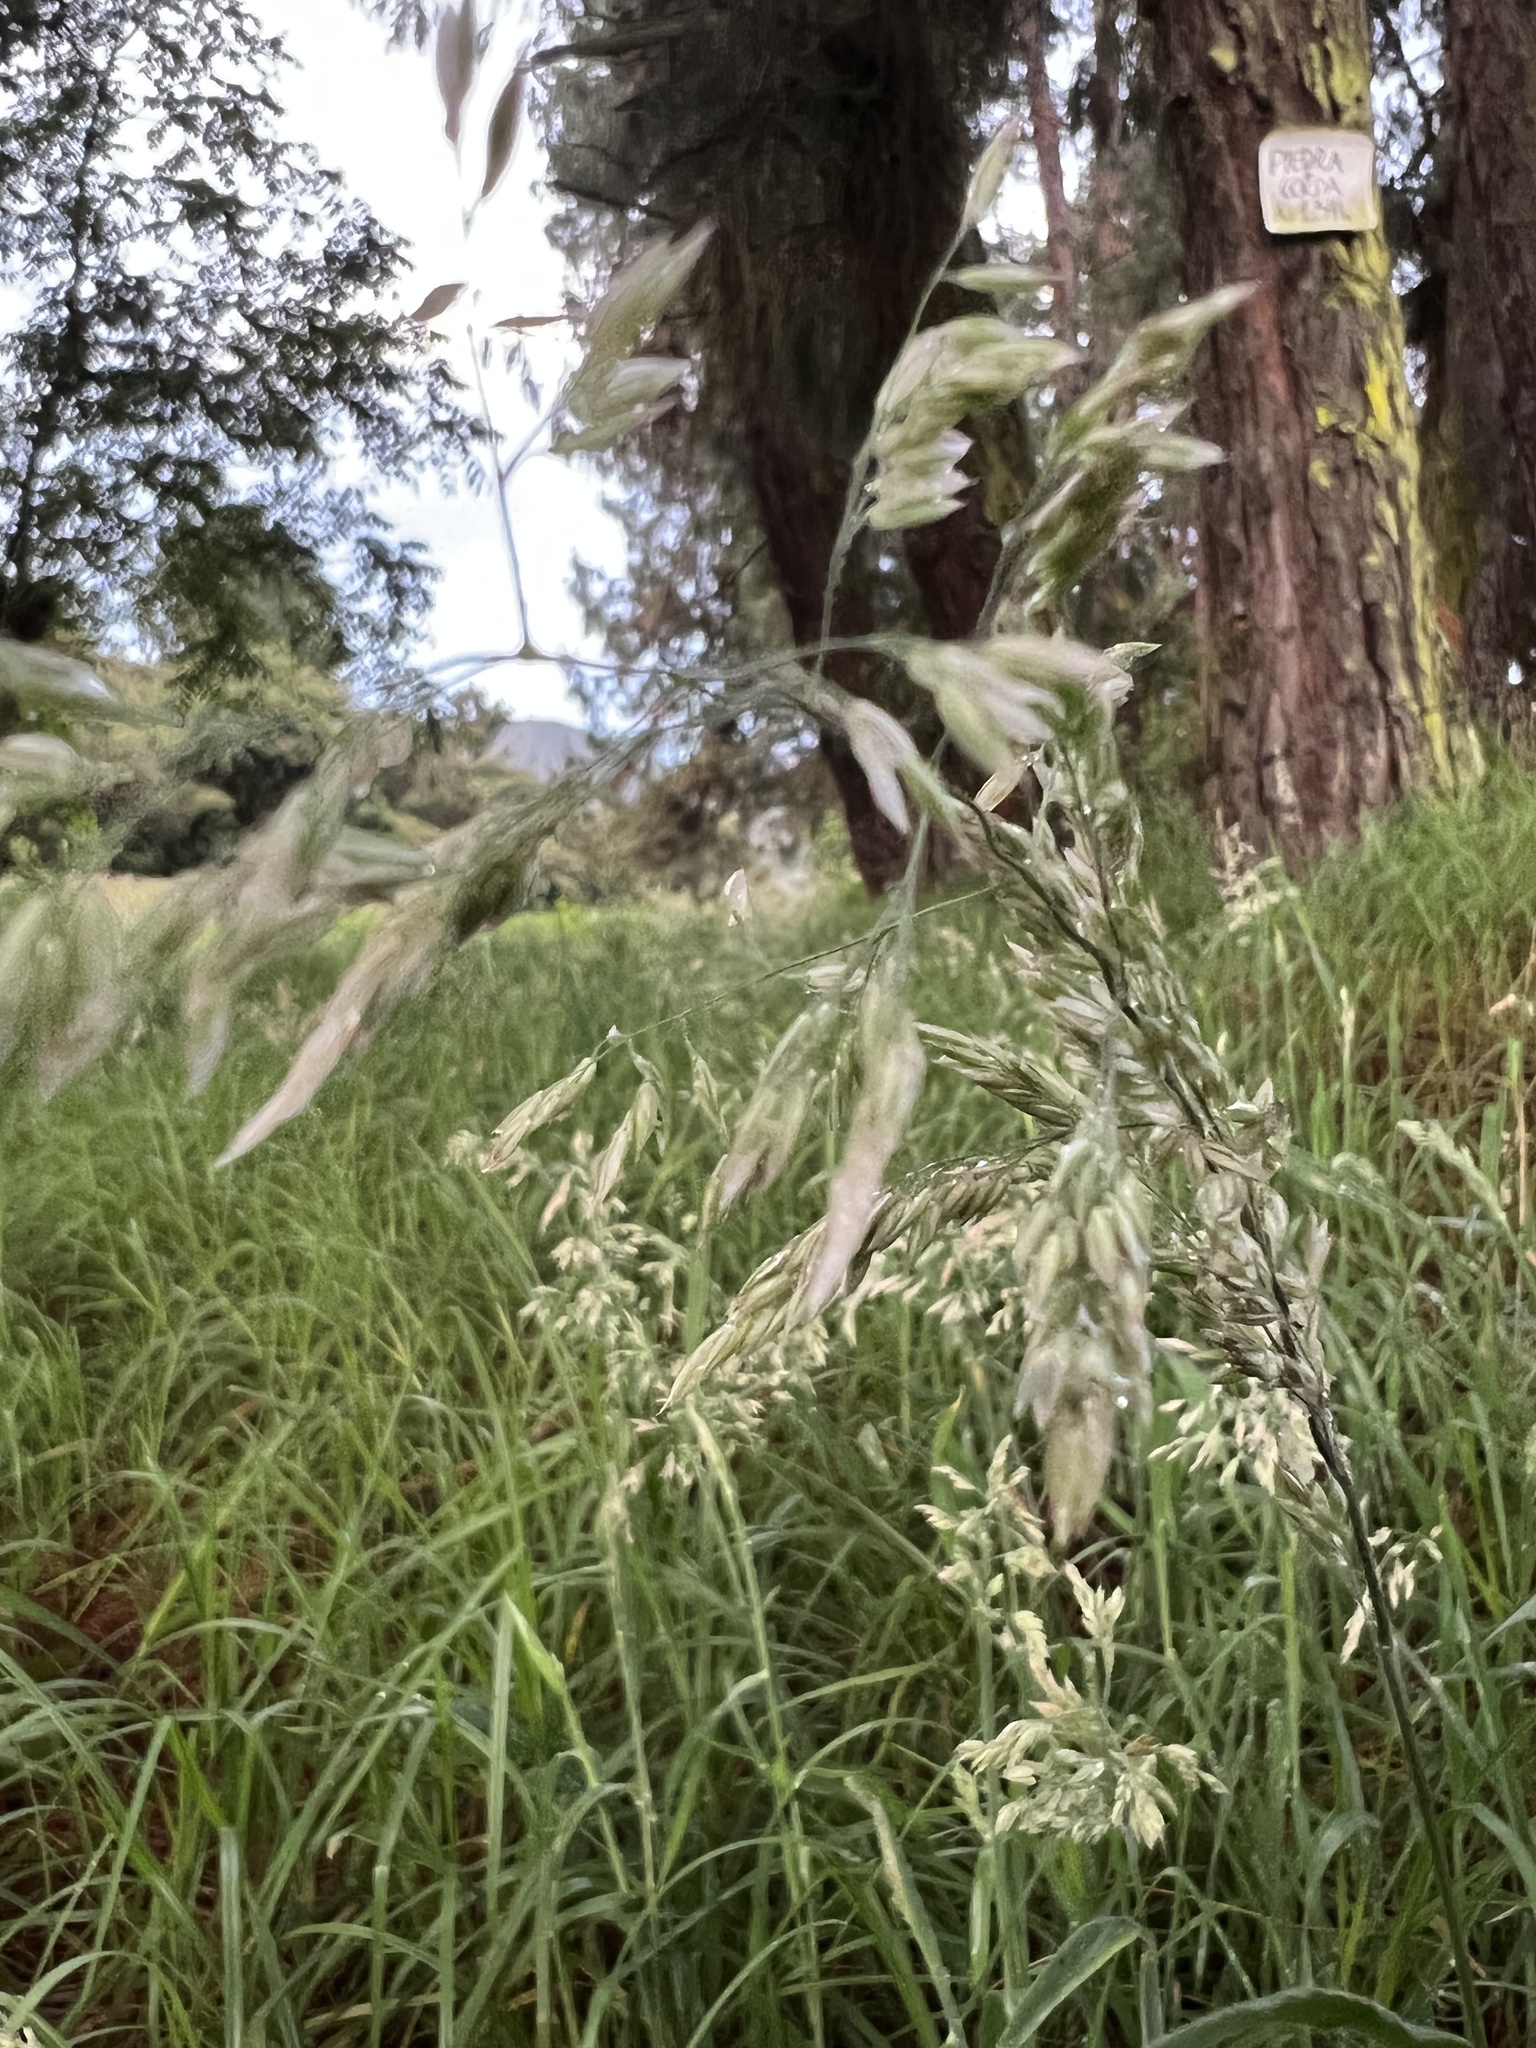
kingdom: Plantae
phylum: Tracheophyta
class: Liliopsida
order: Poales
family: Poaceae
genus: Holcus
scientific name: Holcus lanatus
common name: Yorkshire-fog
